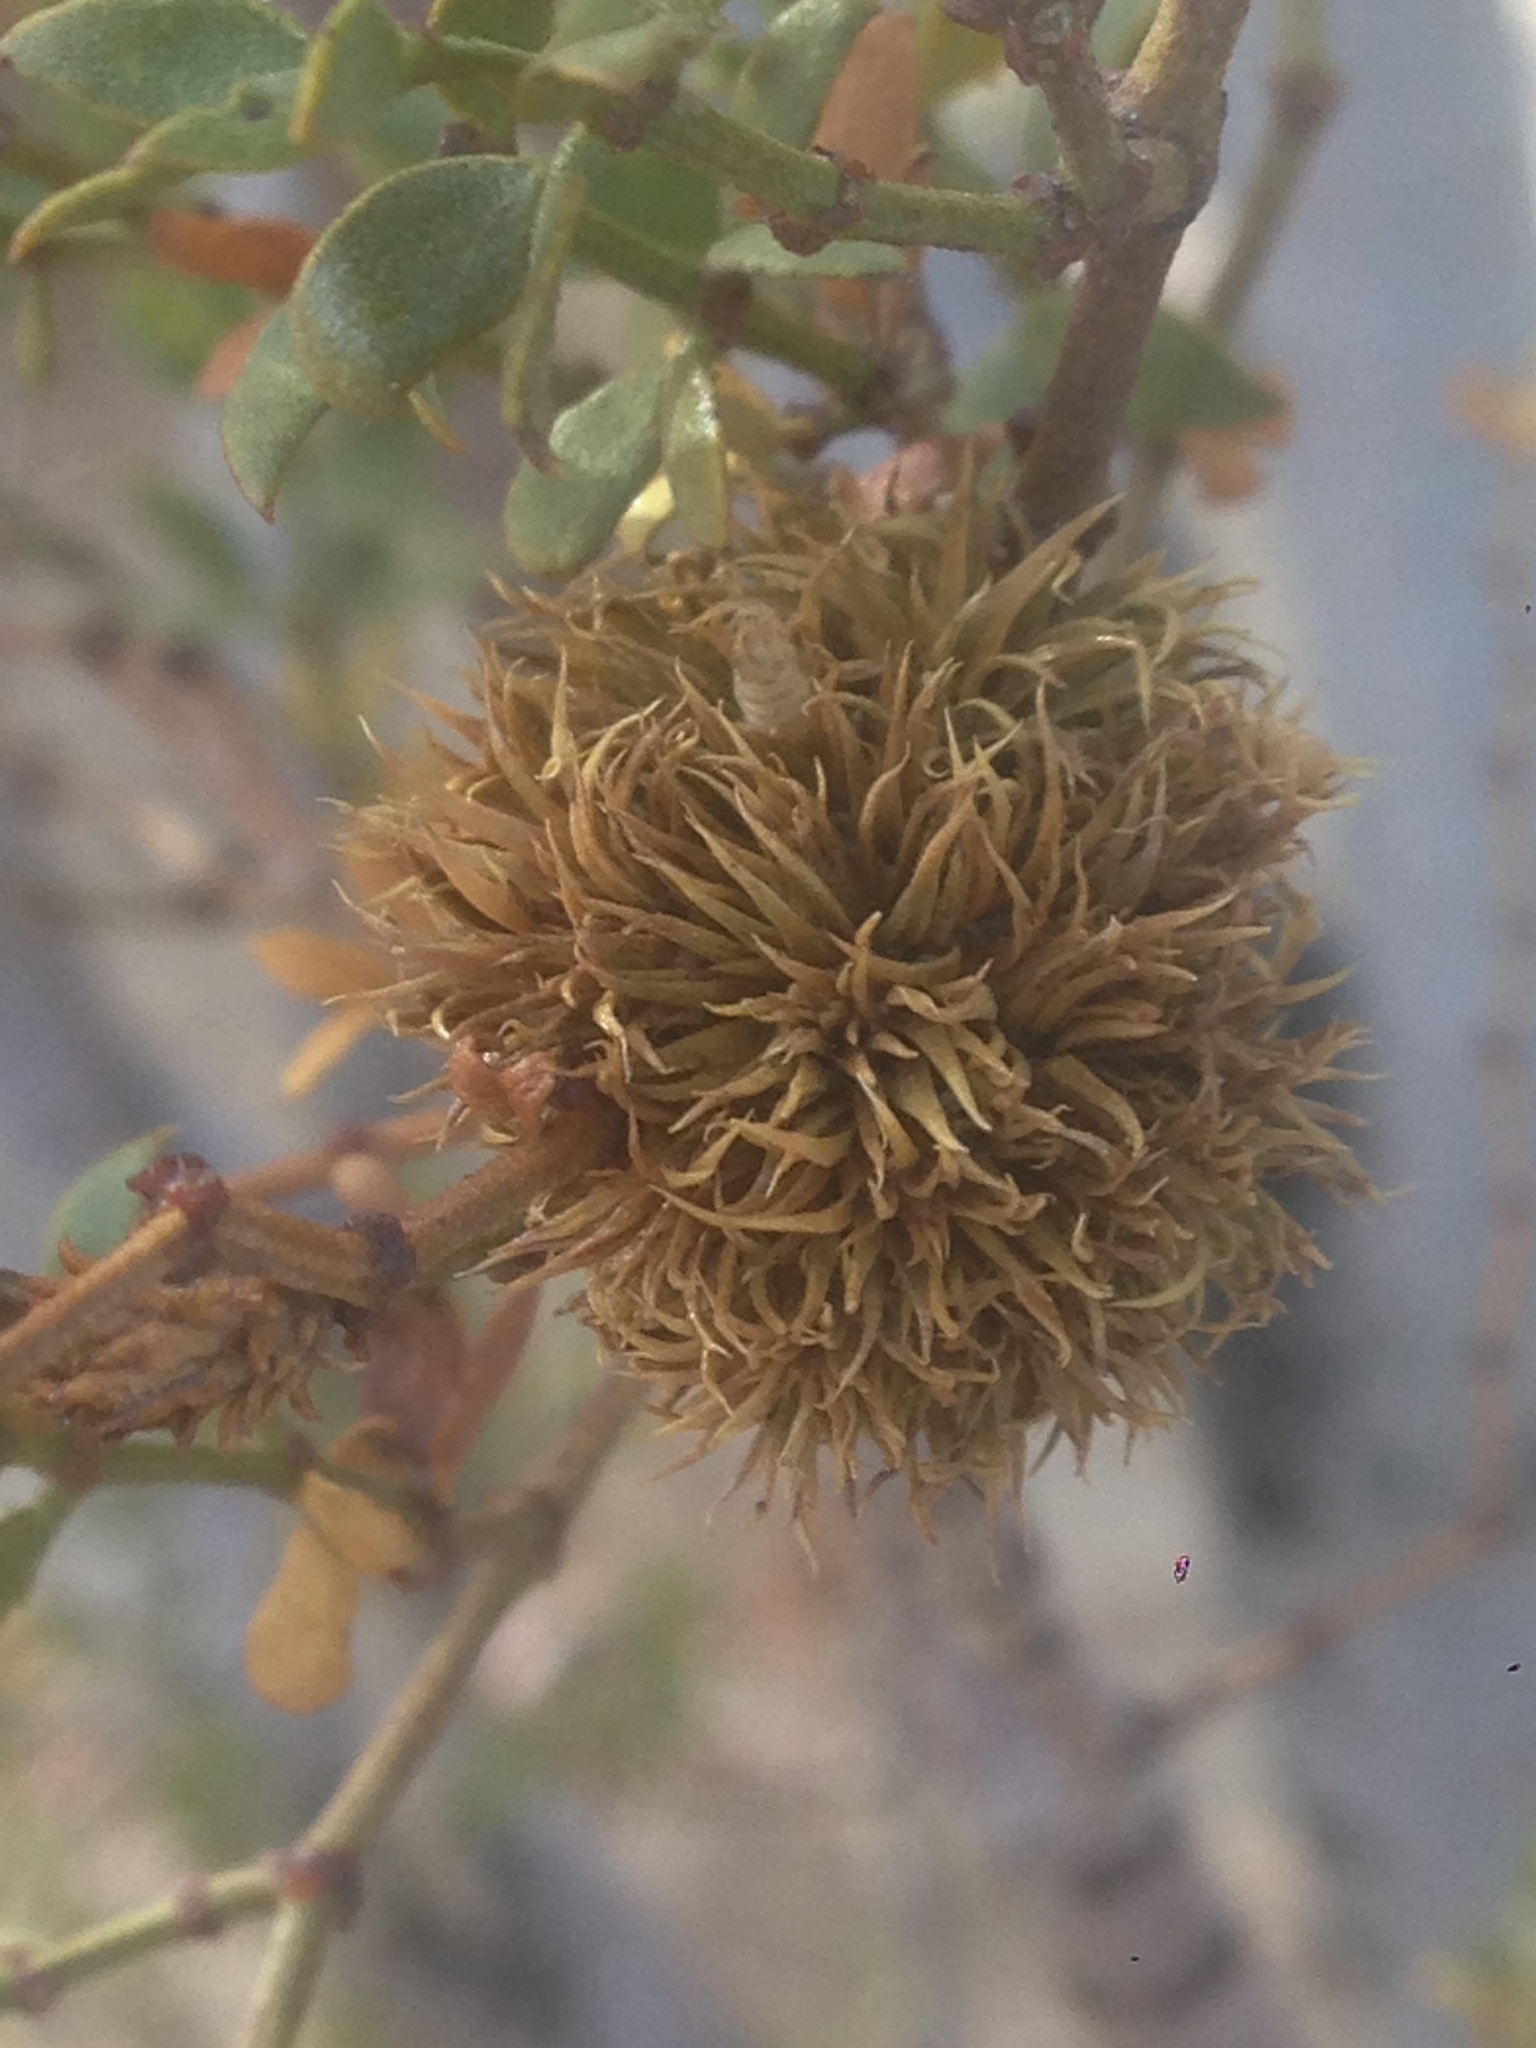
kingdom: Animalia
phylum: Arthropoda
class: Insecta
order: Diptera
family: Cecidomyiidae
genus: Asphondylia
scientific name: Asphondylia auripila
